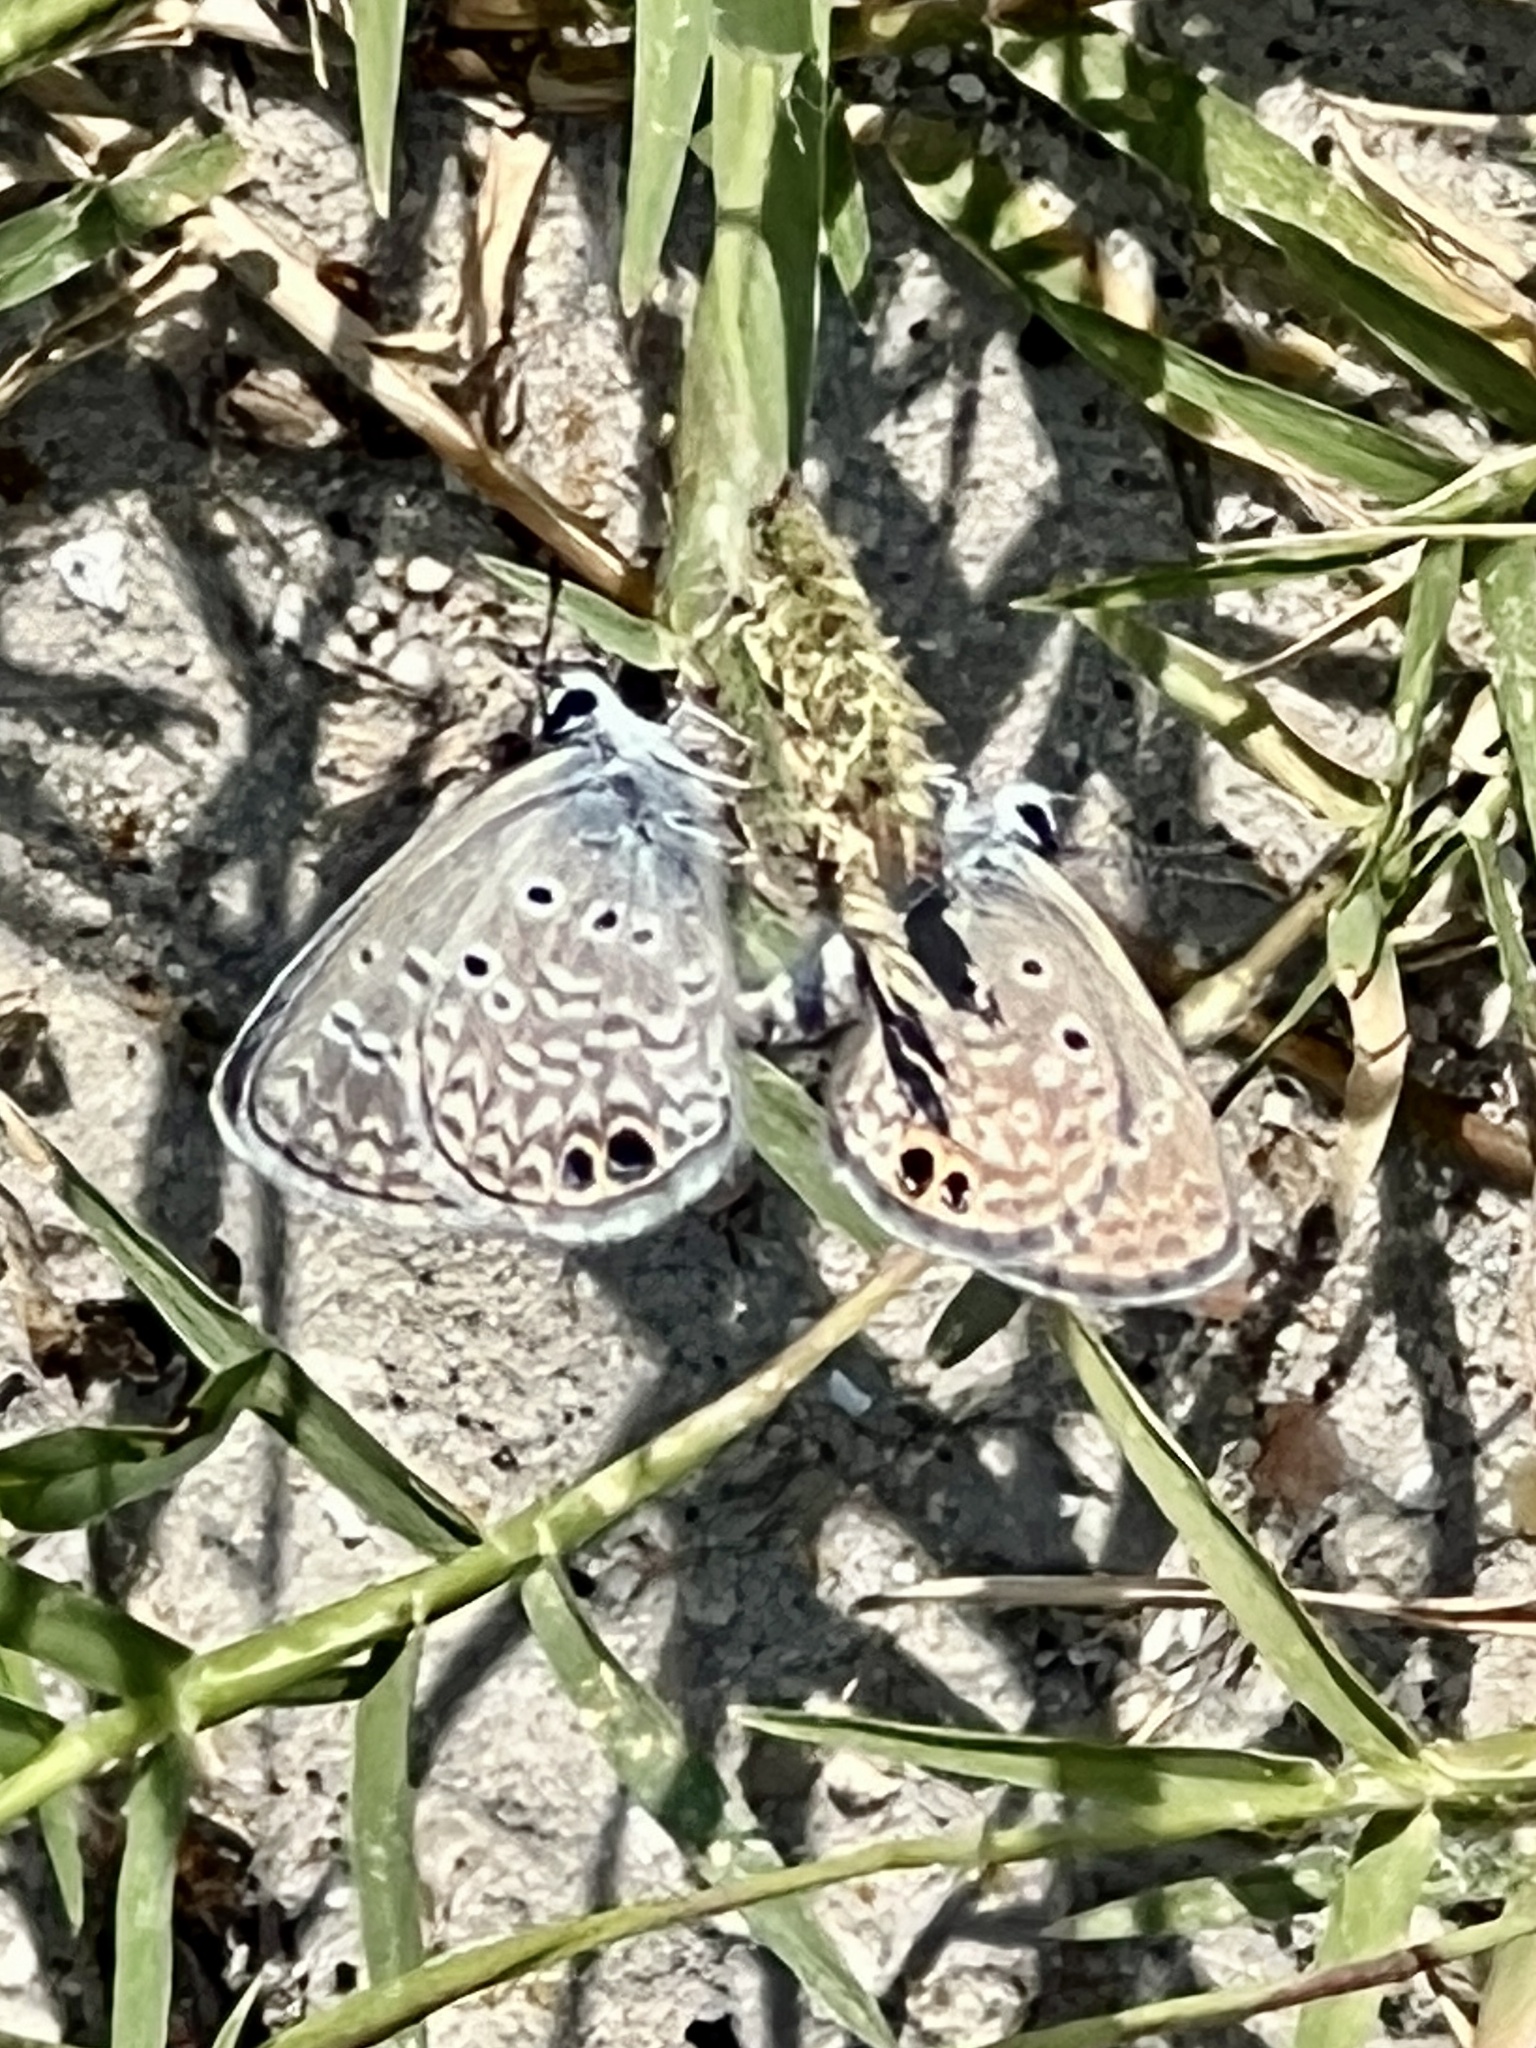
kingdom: Animalia
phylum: Arthropoda
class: Insecta
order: Lepidoptera
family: Lycaenidae
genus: Hemiargus
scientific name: Hemiargus ceraunus
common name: Ceraunus blue
